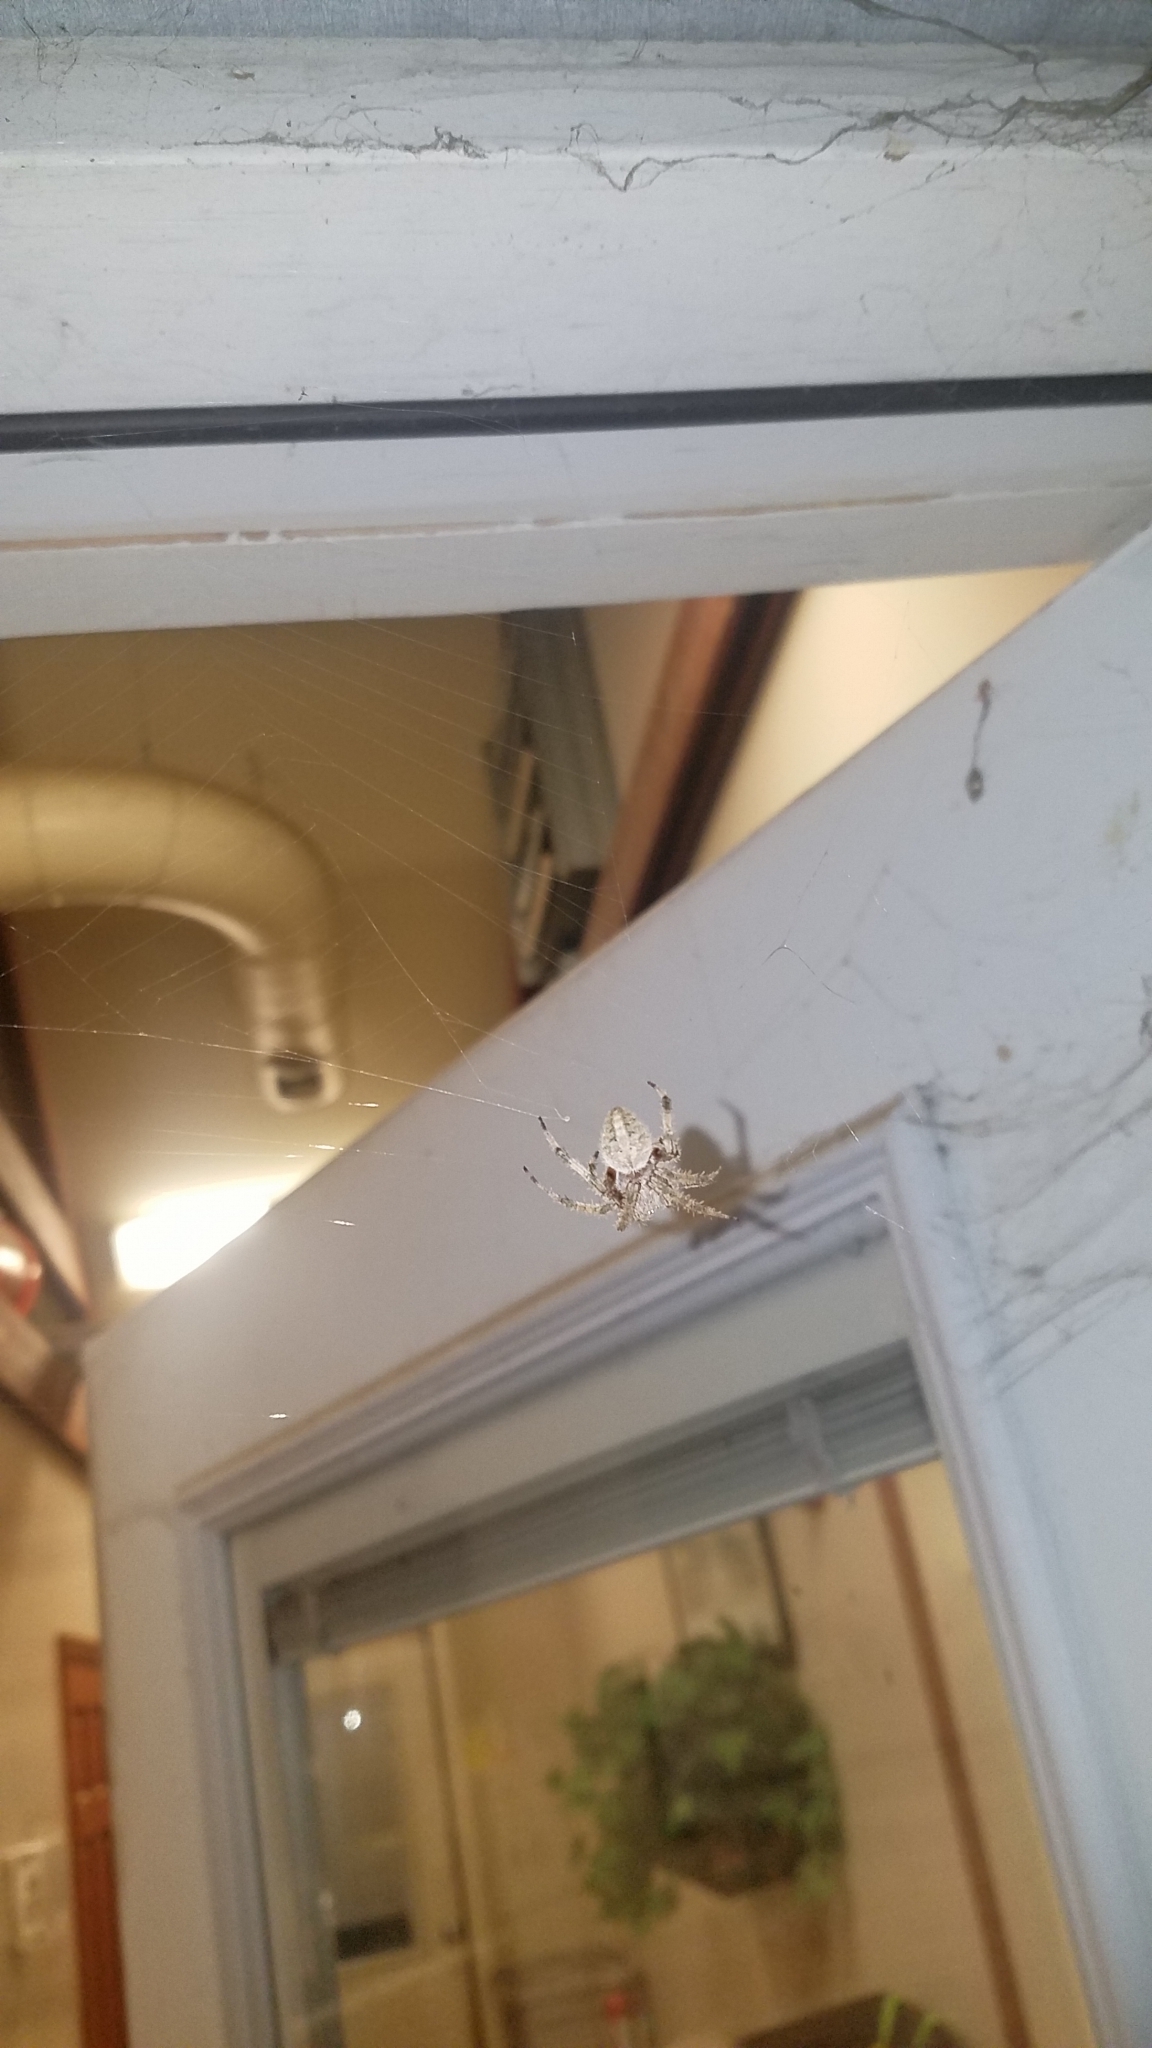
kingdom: Animalia
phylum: Arthropoda
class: Arachnida
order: Araneae
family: Araneidae
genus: Neoscona
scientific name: Neoscona crucifera
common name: Spotted orbweaver
